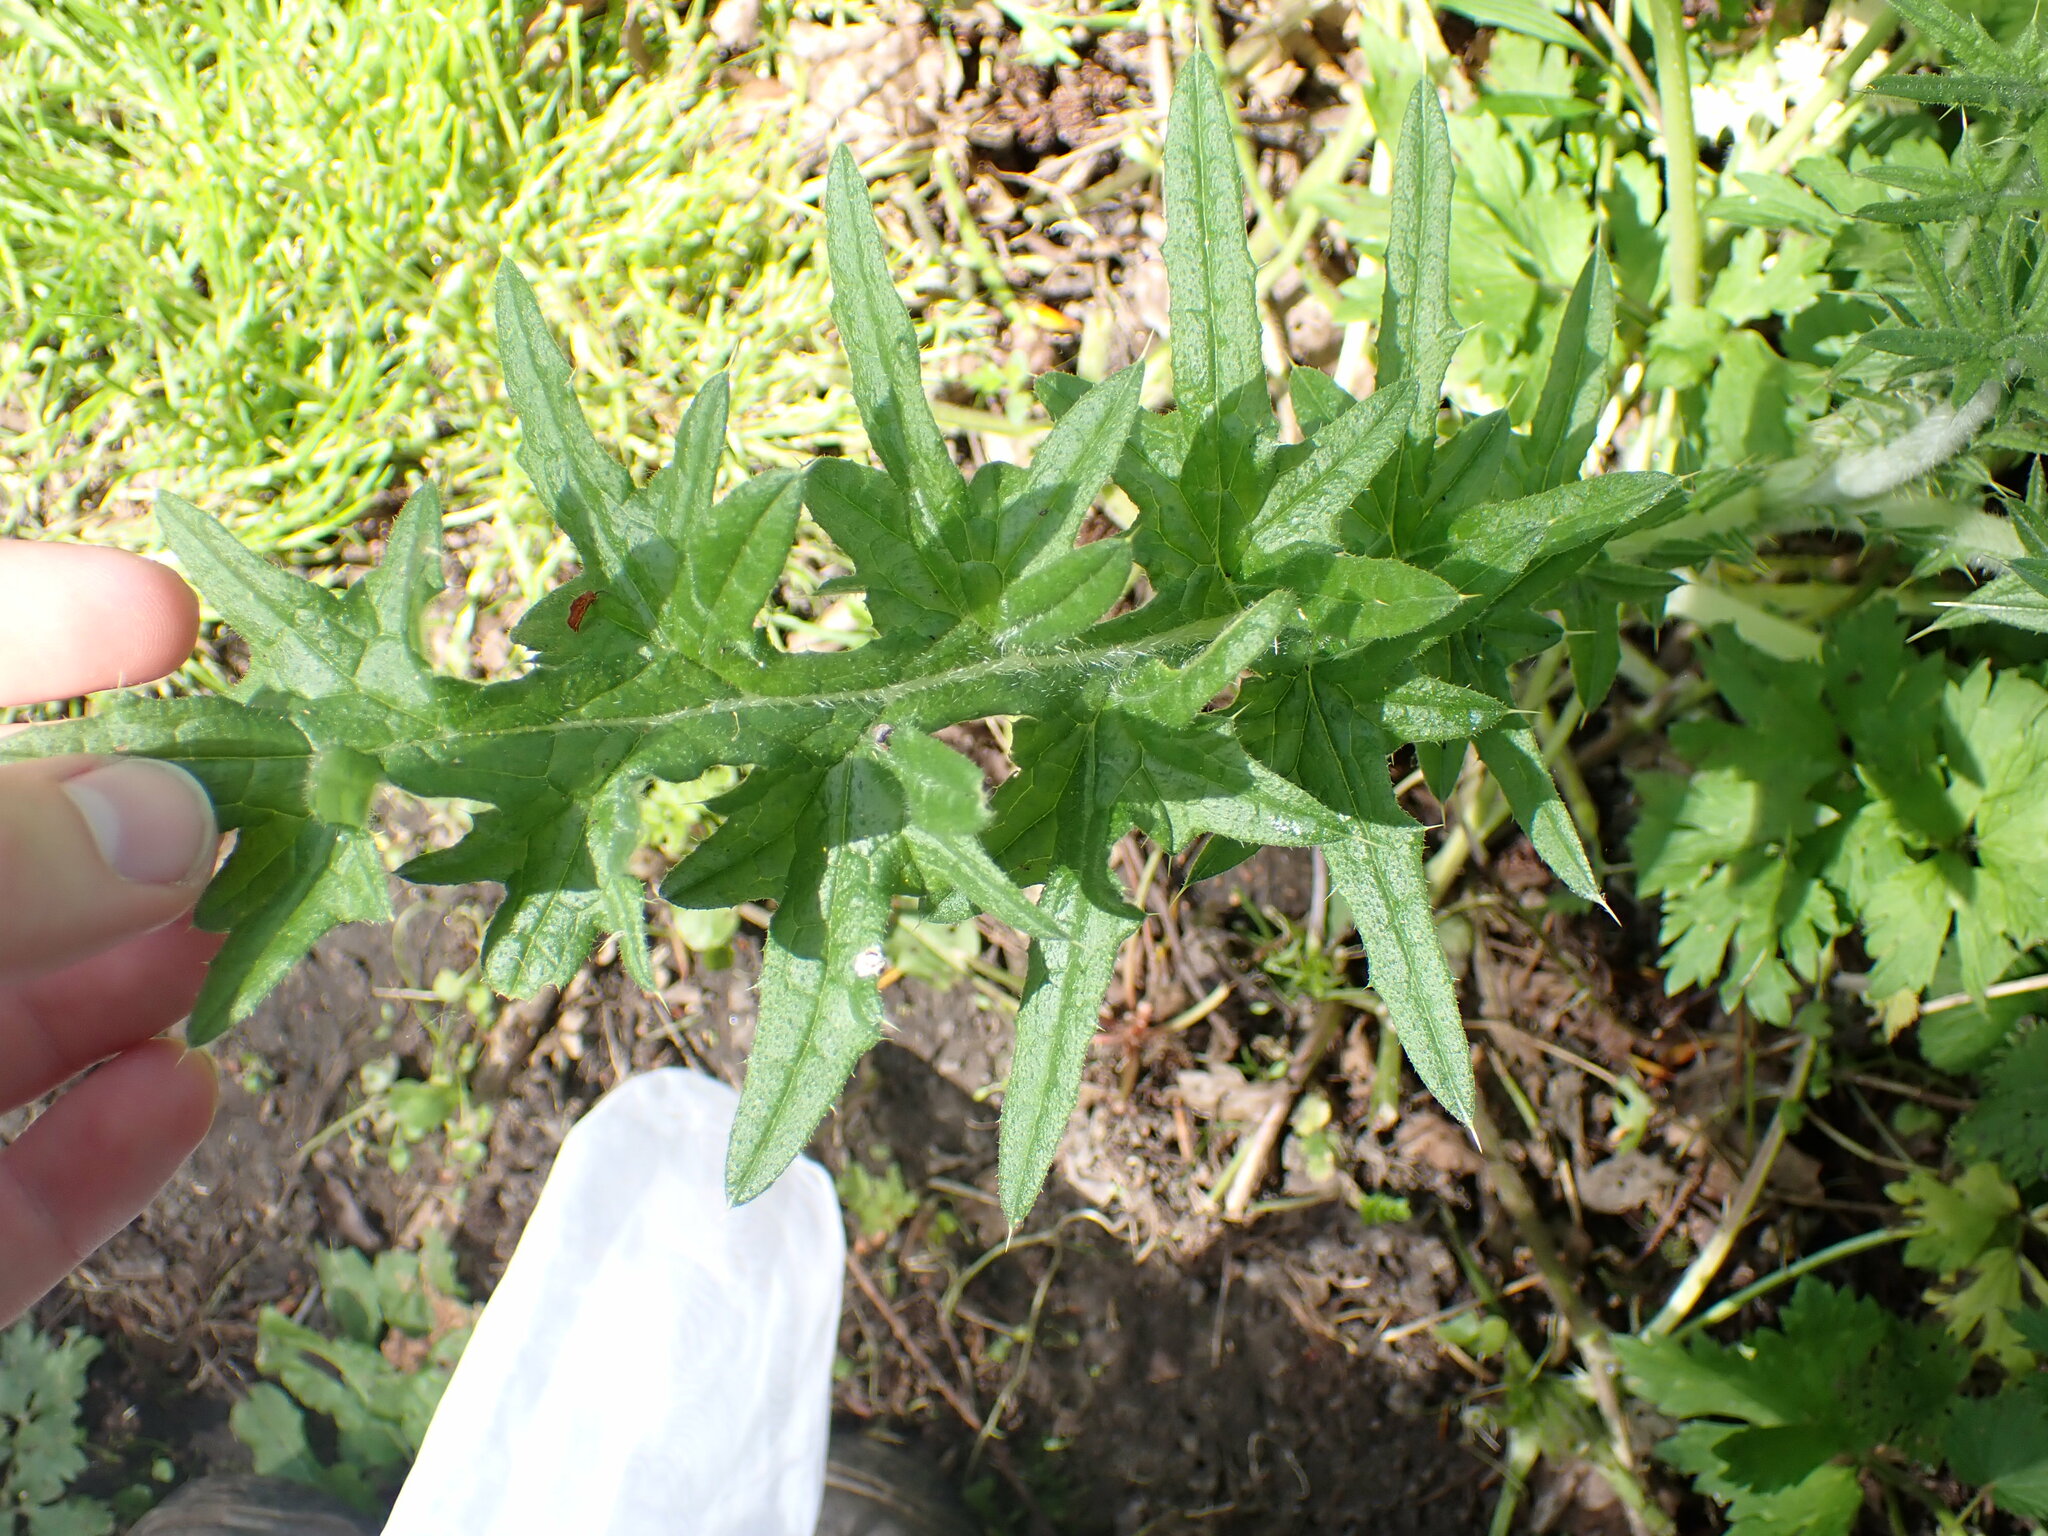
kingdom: Plantae
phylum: Tracheophyta
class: Magnoliopsida
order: Asterales
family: Asteraceae
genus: Cirsium
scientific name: Cirsium vulgare
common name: Bull thistle
